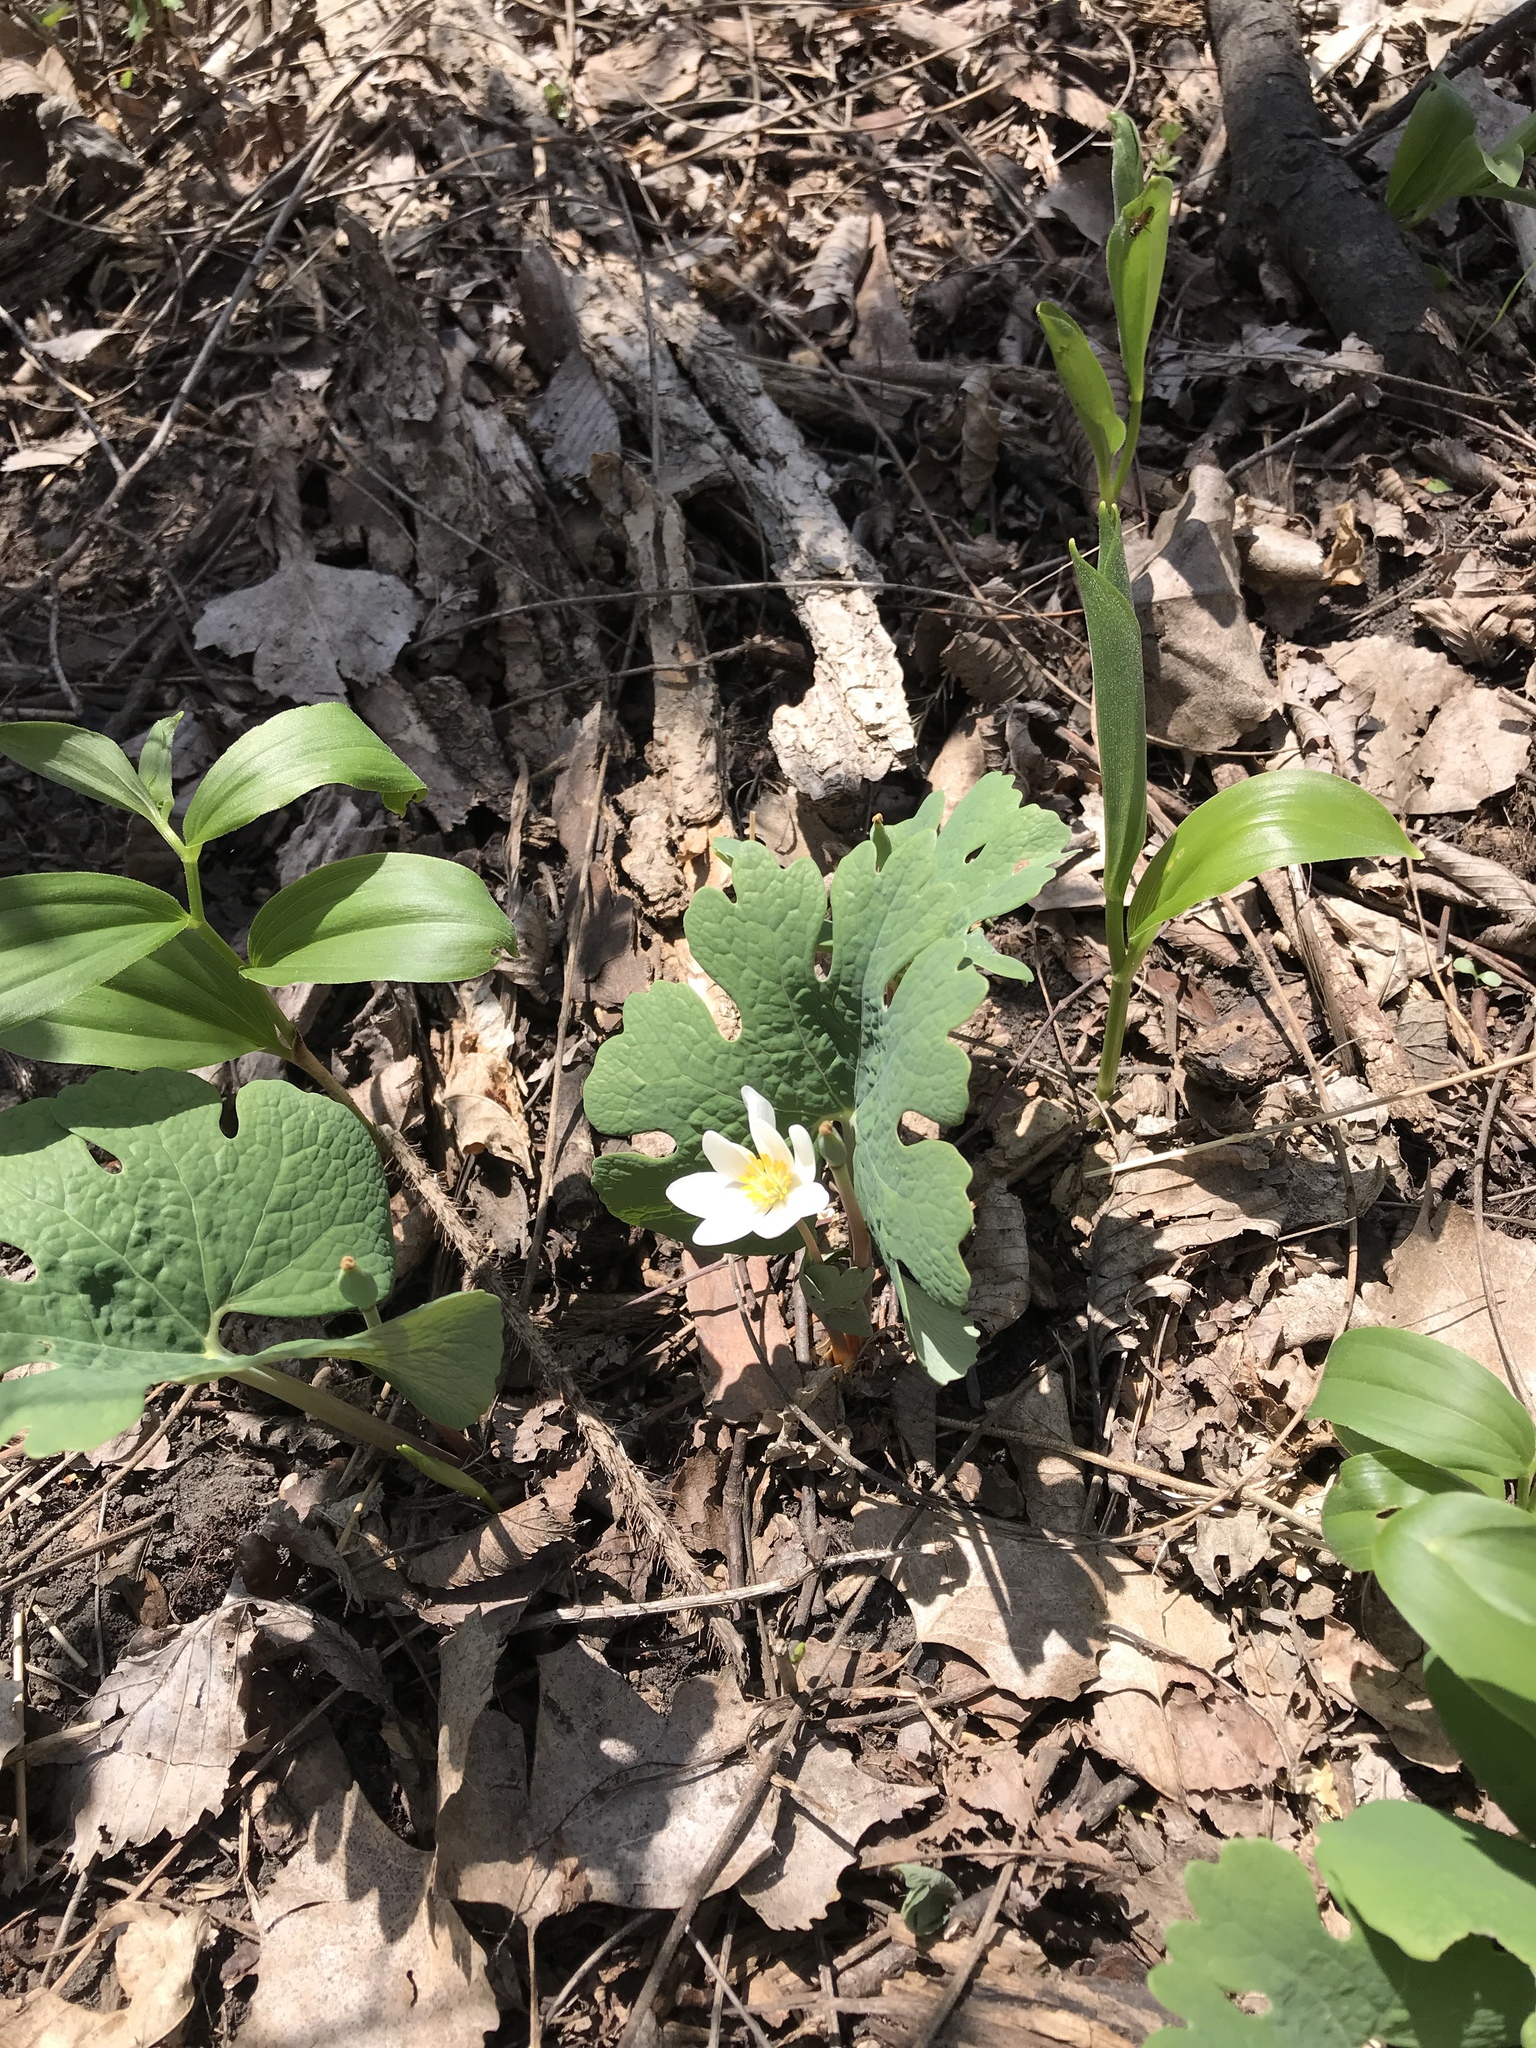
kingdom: Plantae
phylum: Tracheophyta
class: Magnoliopsida
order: Ranunculales
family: Papaveraceae
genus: Sanguinaria
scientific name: Sanguinaria canadensis
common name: Bloodroot
